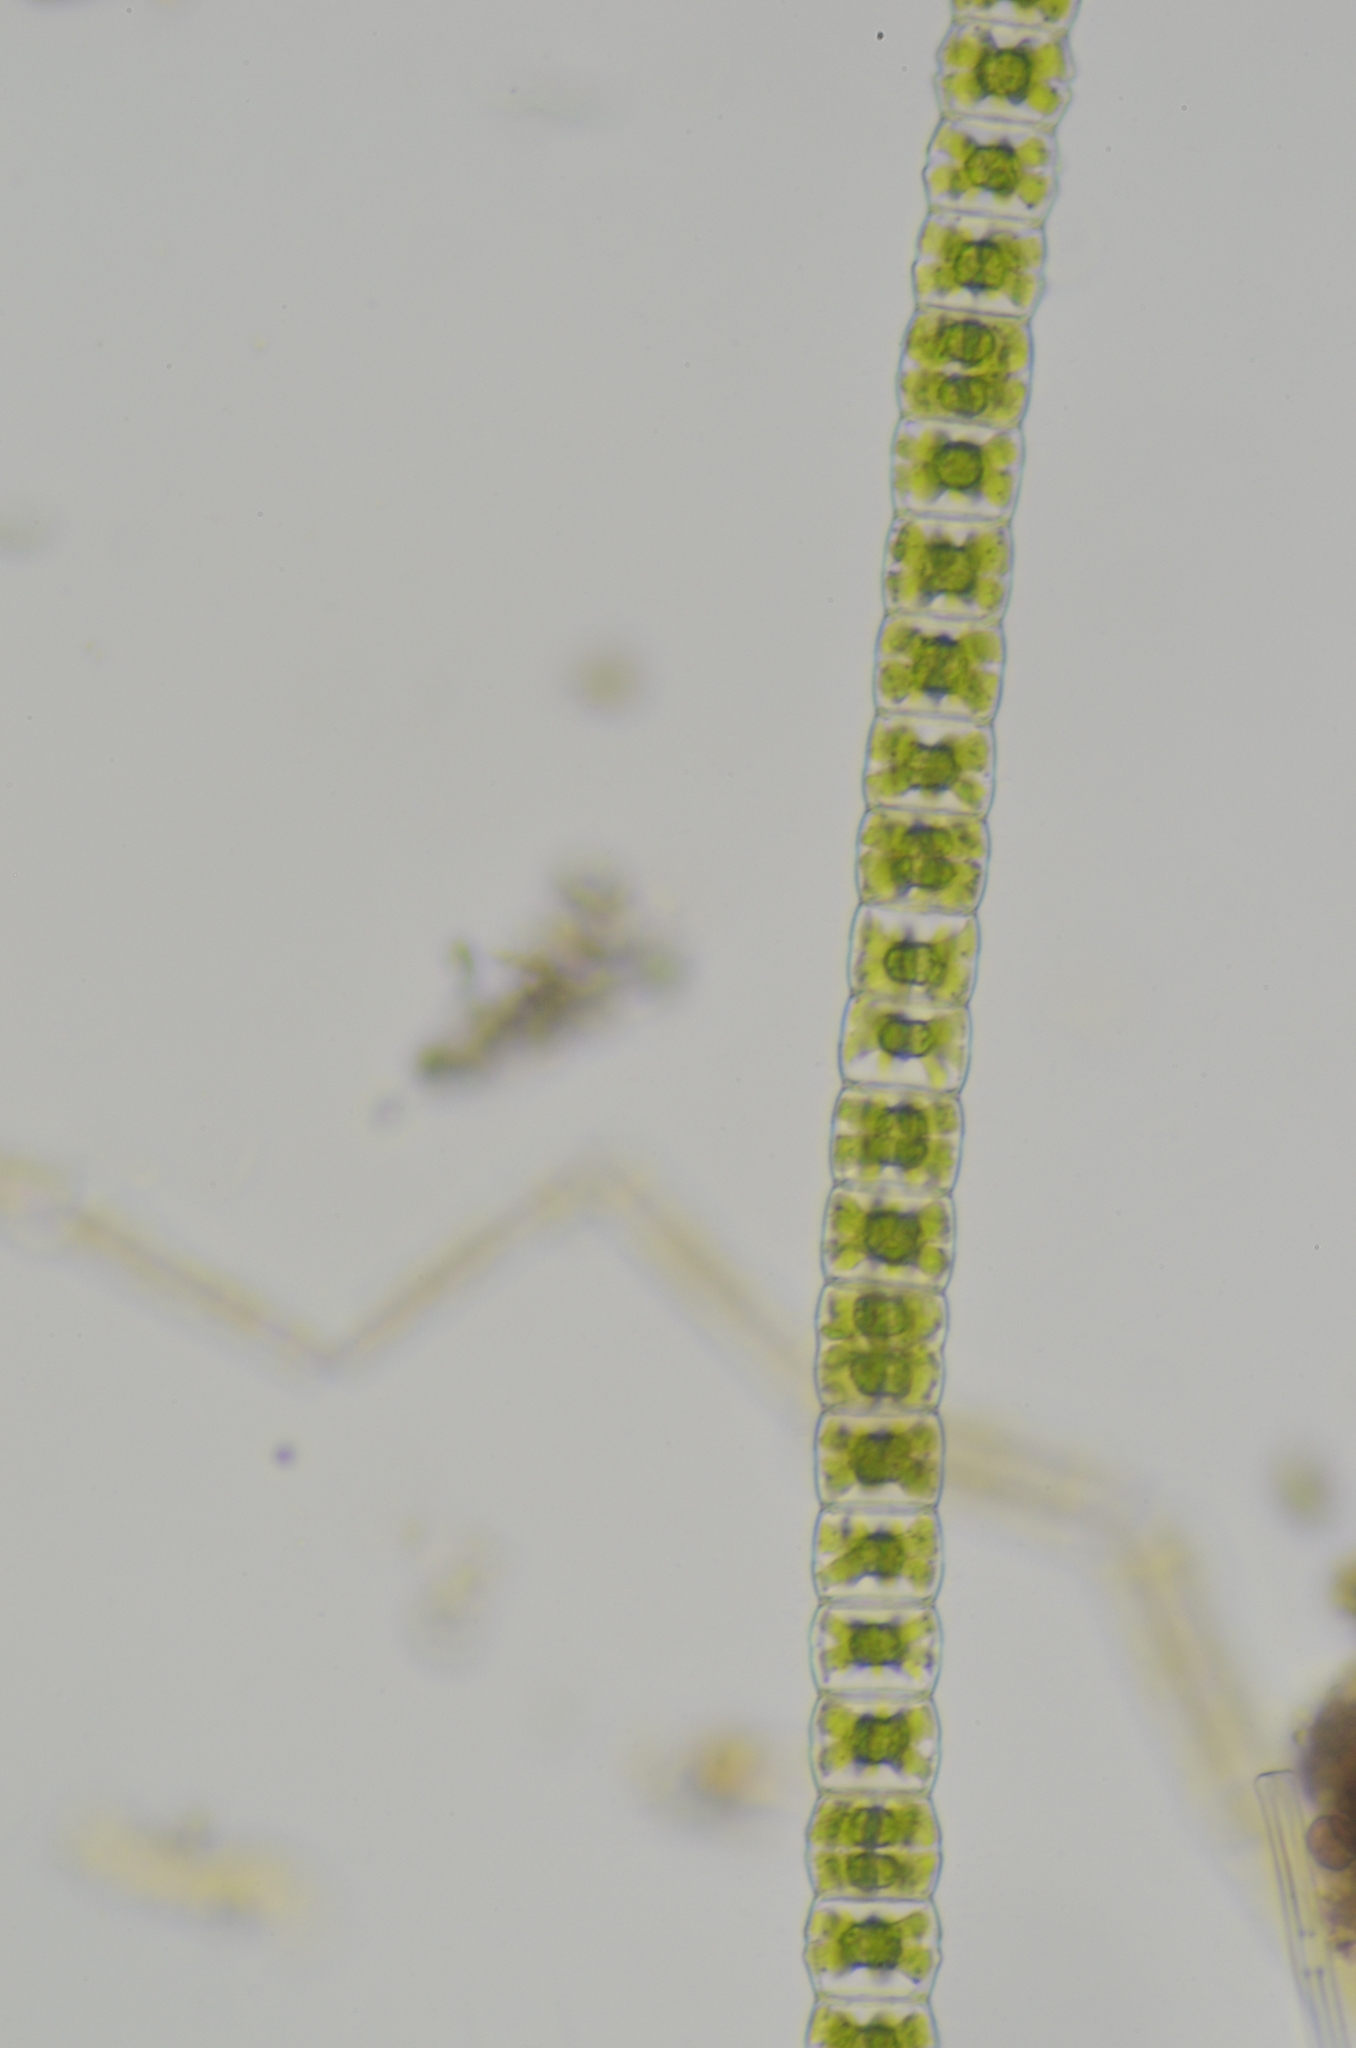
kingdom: Plantae
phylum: Charophyta
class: Conjugatophyceae
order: Desmidiales
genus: Hyalotheca
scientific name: Hyalotheca dissiliens
